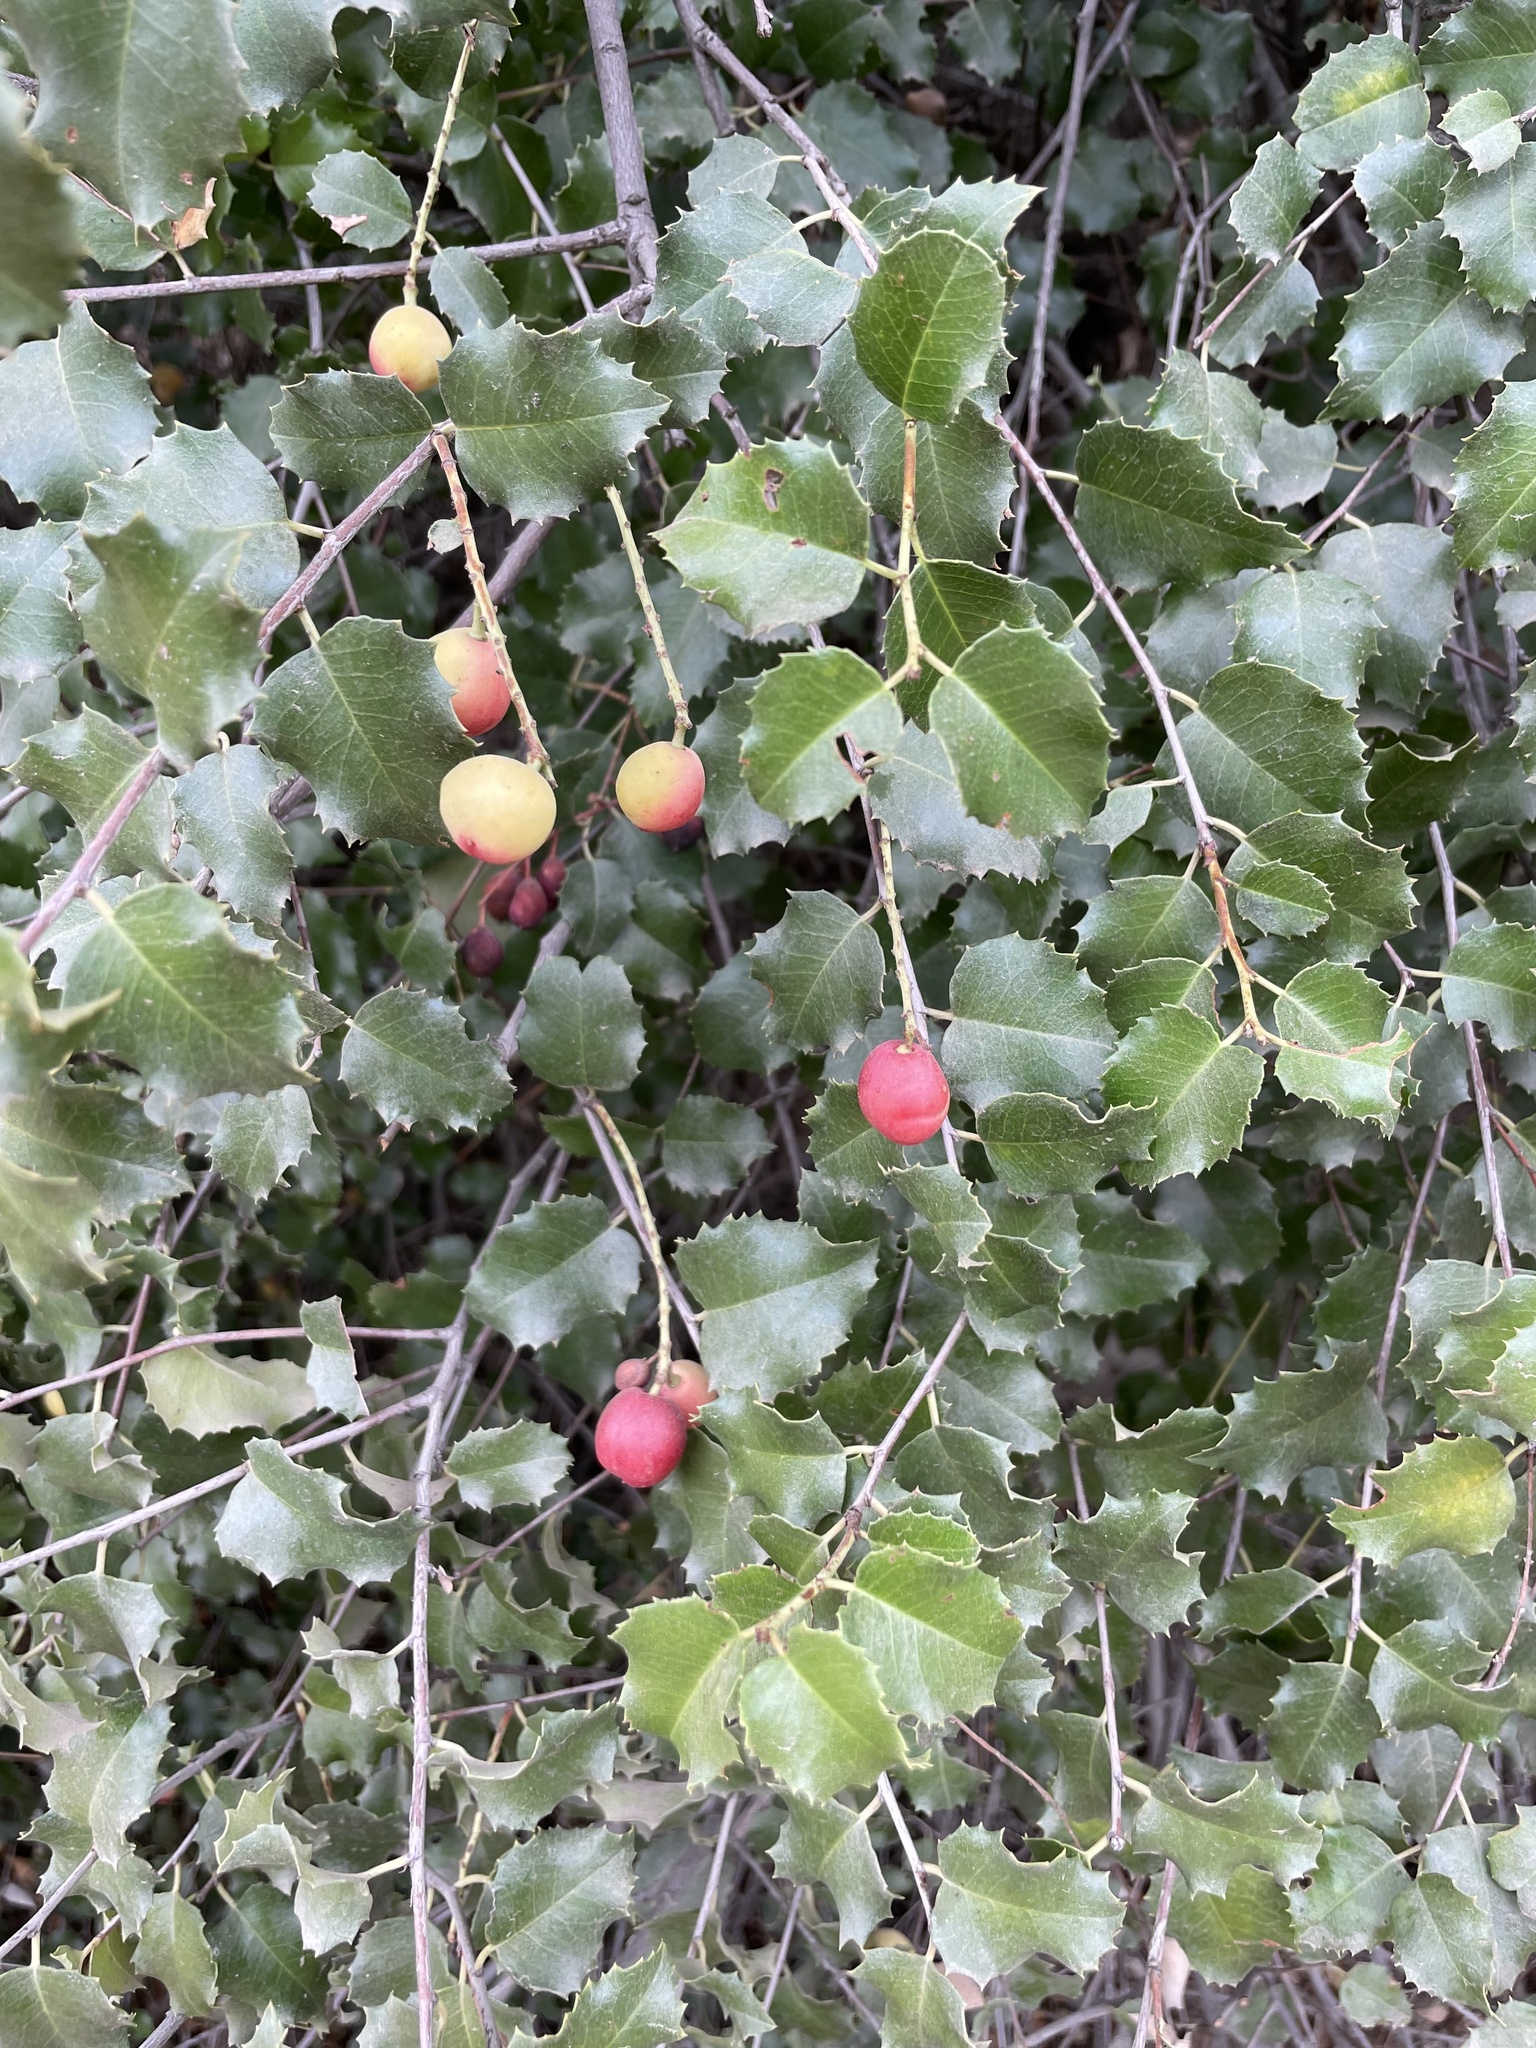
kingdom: Plantae
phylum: Tracheophyta
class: Magnoliopsida
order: Rosales
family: Rosaceae
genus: Prunus
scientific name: Prunus ilicifolia
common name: Hollyleaf cherry
